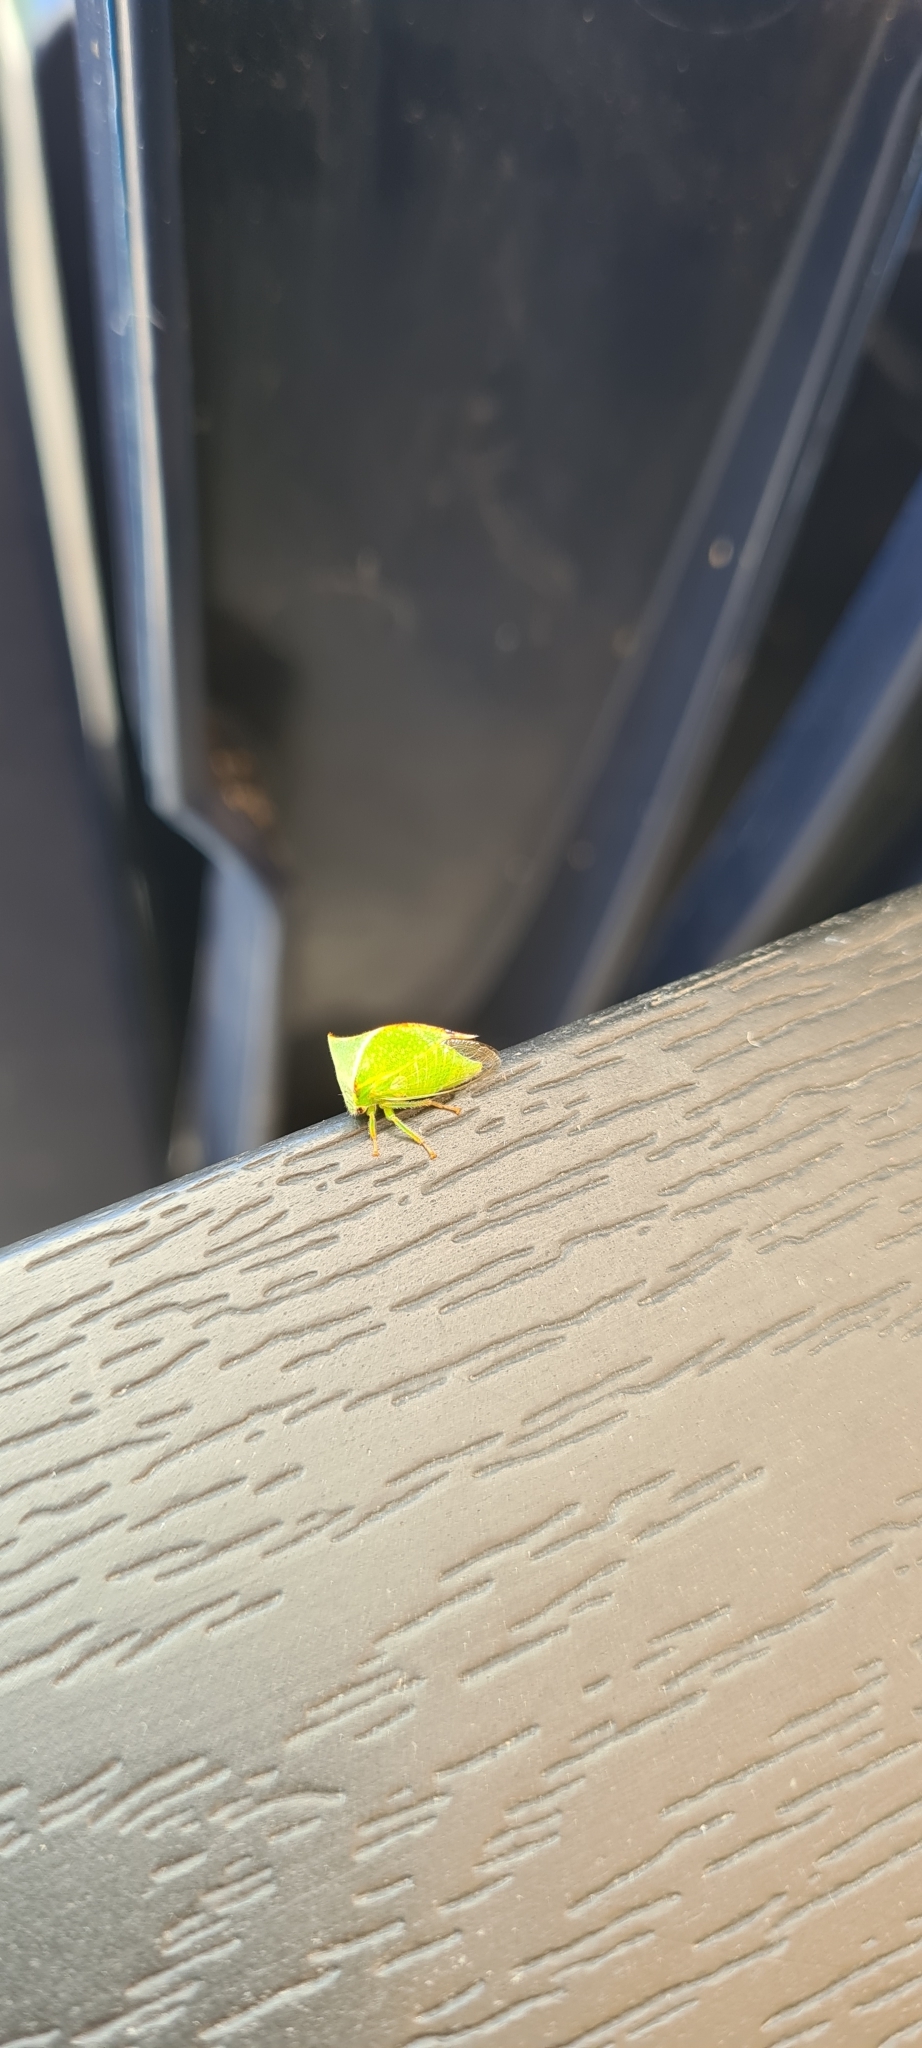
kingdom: Animalia
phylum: Arthropoda
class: Insecta
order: Hemiptera
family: Membracidae
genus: Stictocephala
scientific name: Stictocephala bisonia
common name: American buffalo treehopper
